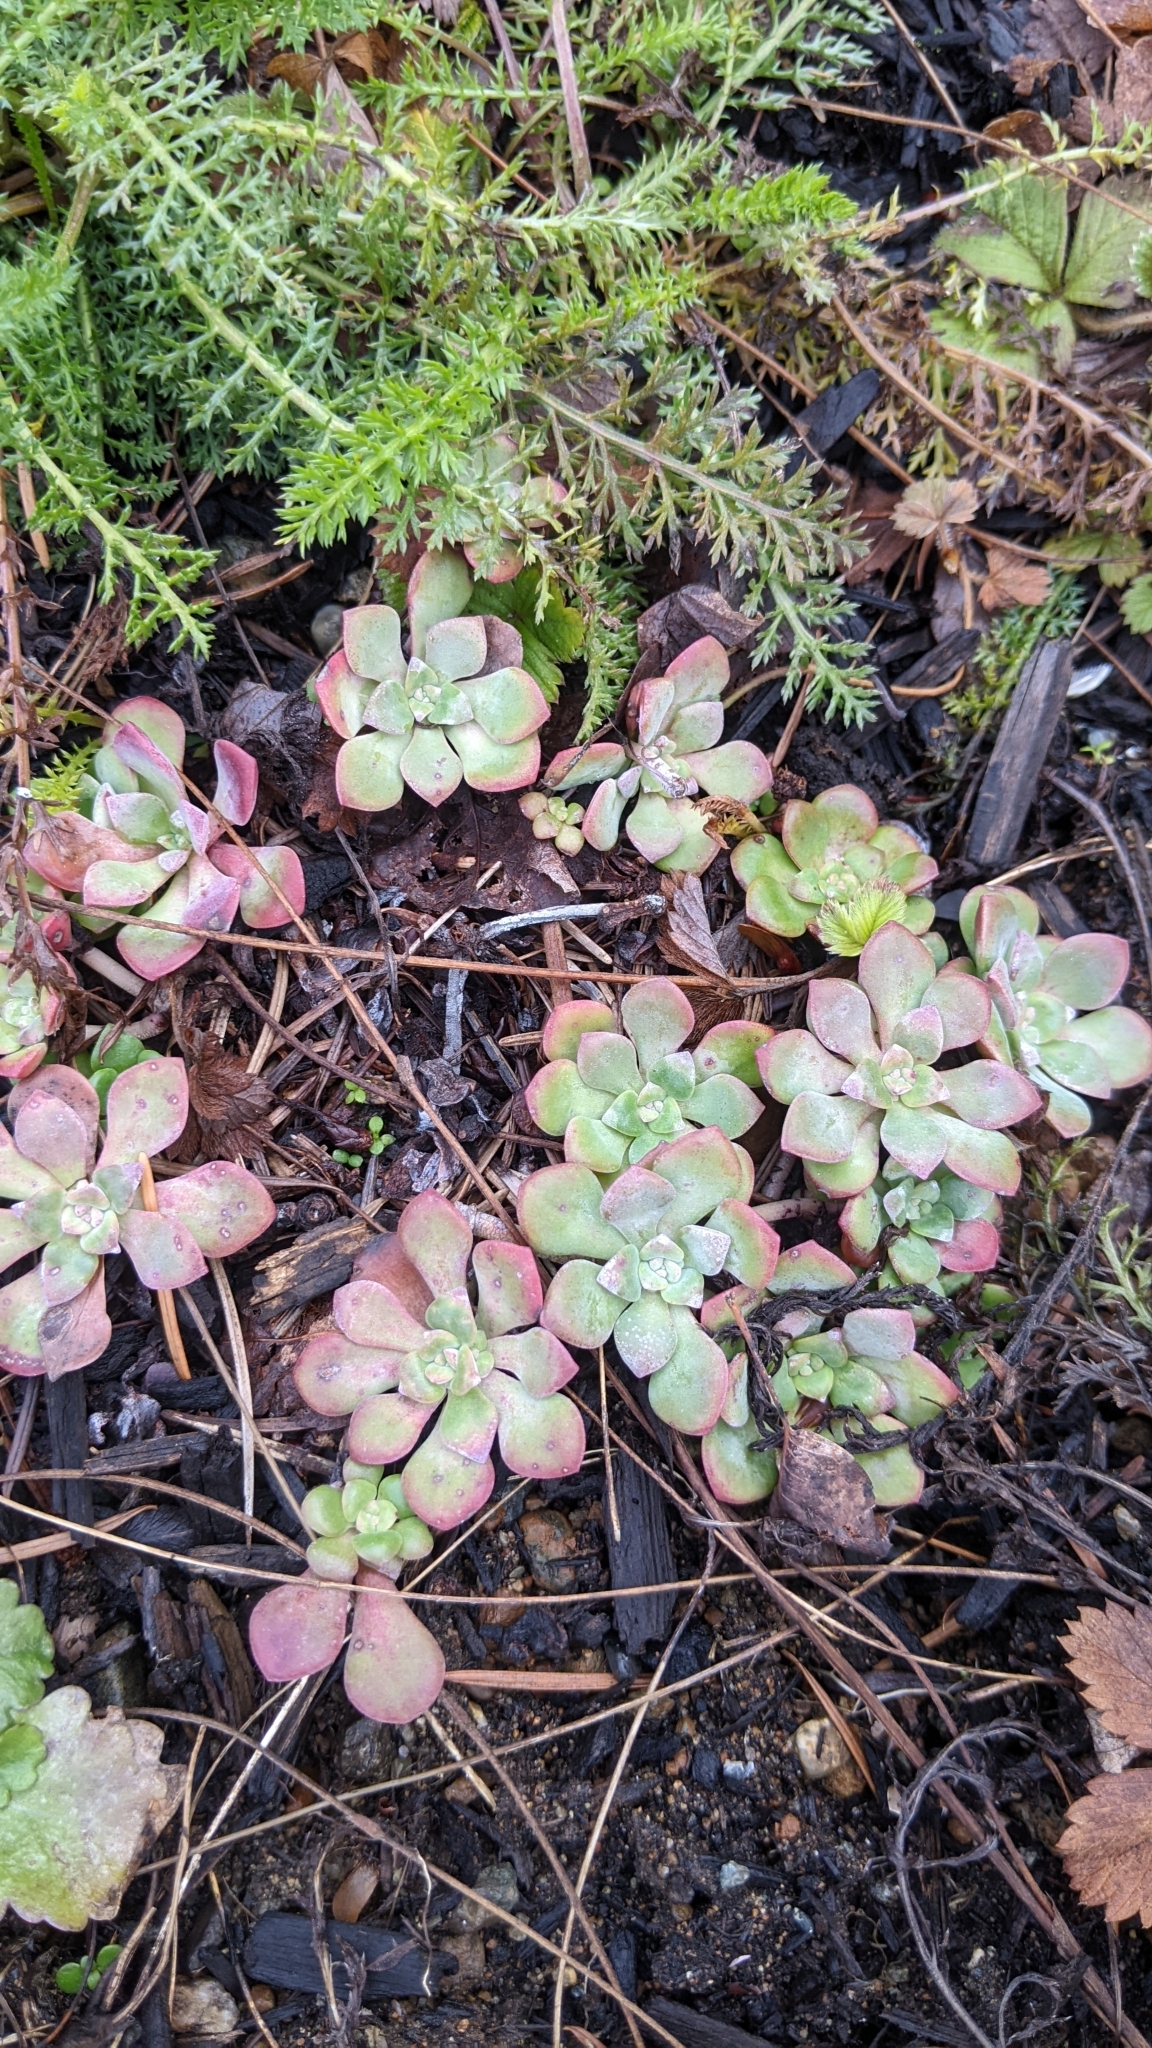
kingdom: Plantae
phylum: Tracheophyta
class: Magnoliopsida
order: Saxifragales
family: Crassulaceae
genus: Sedum
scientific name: Sedum spathulifolium
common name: Colorado stonecrop
